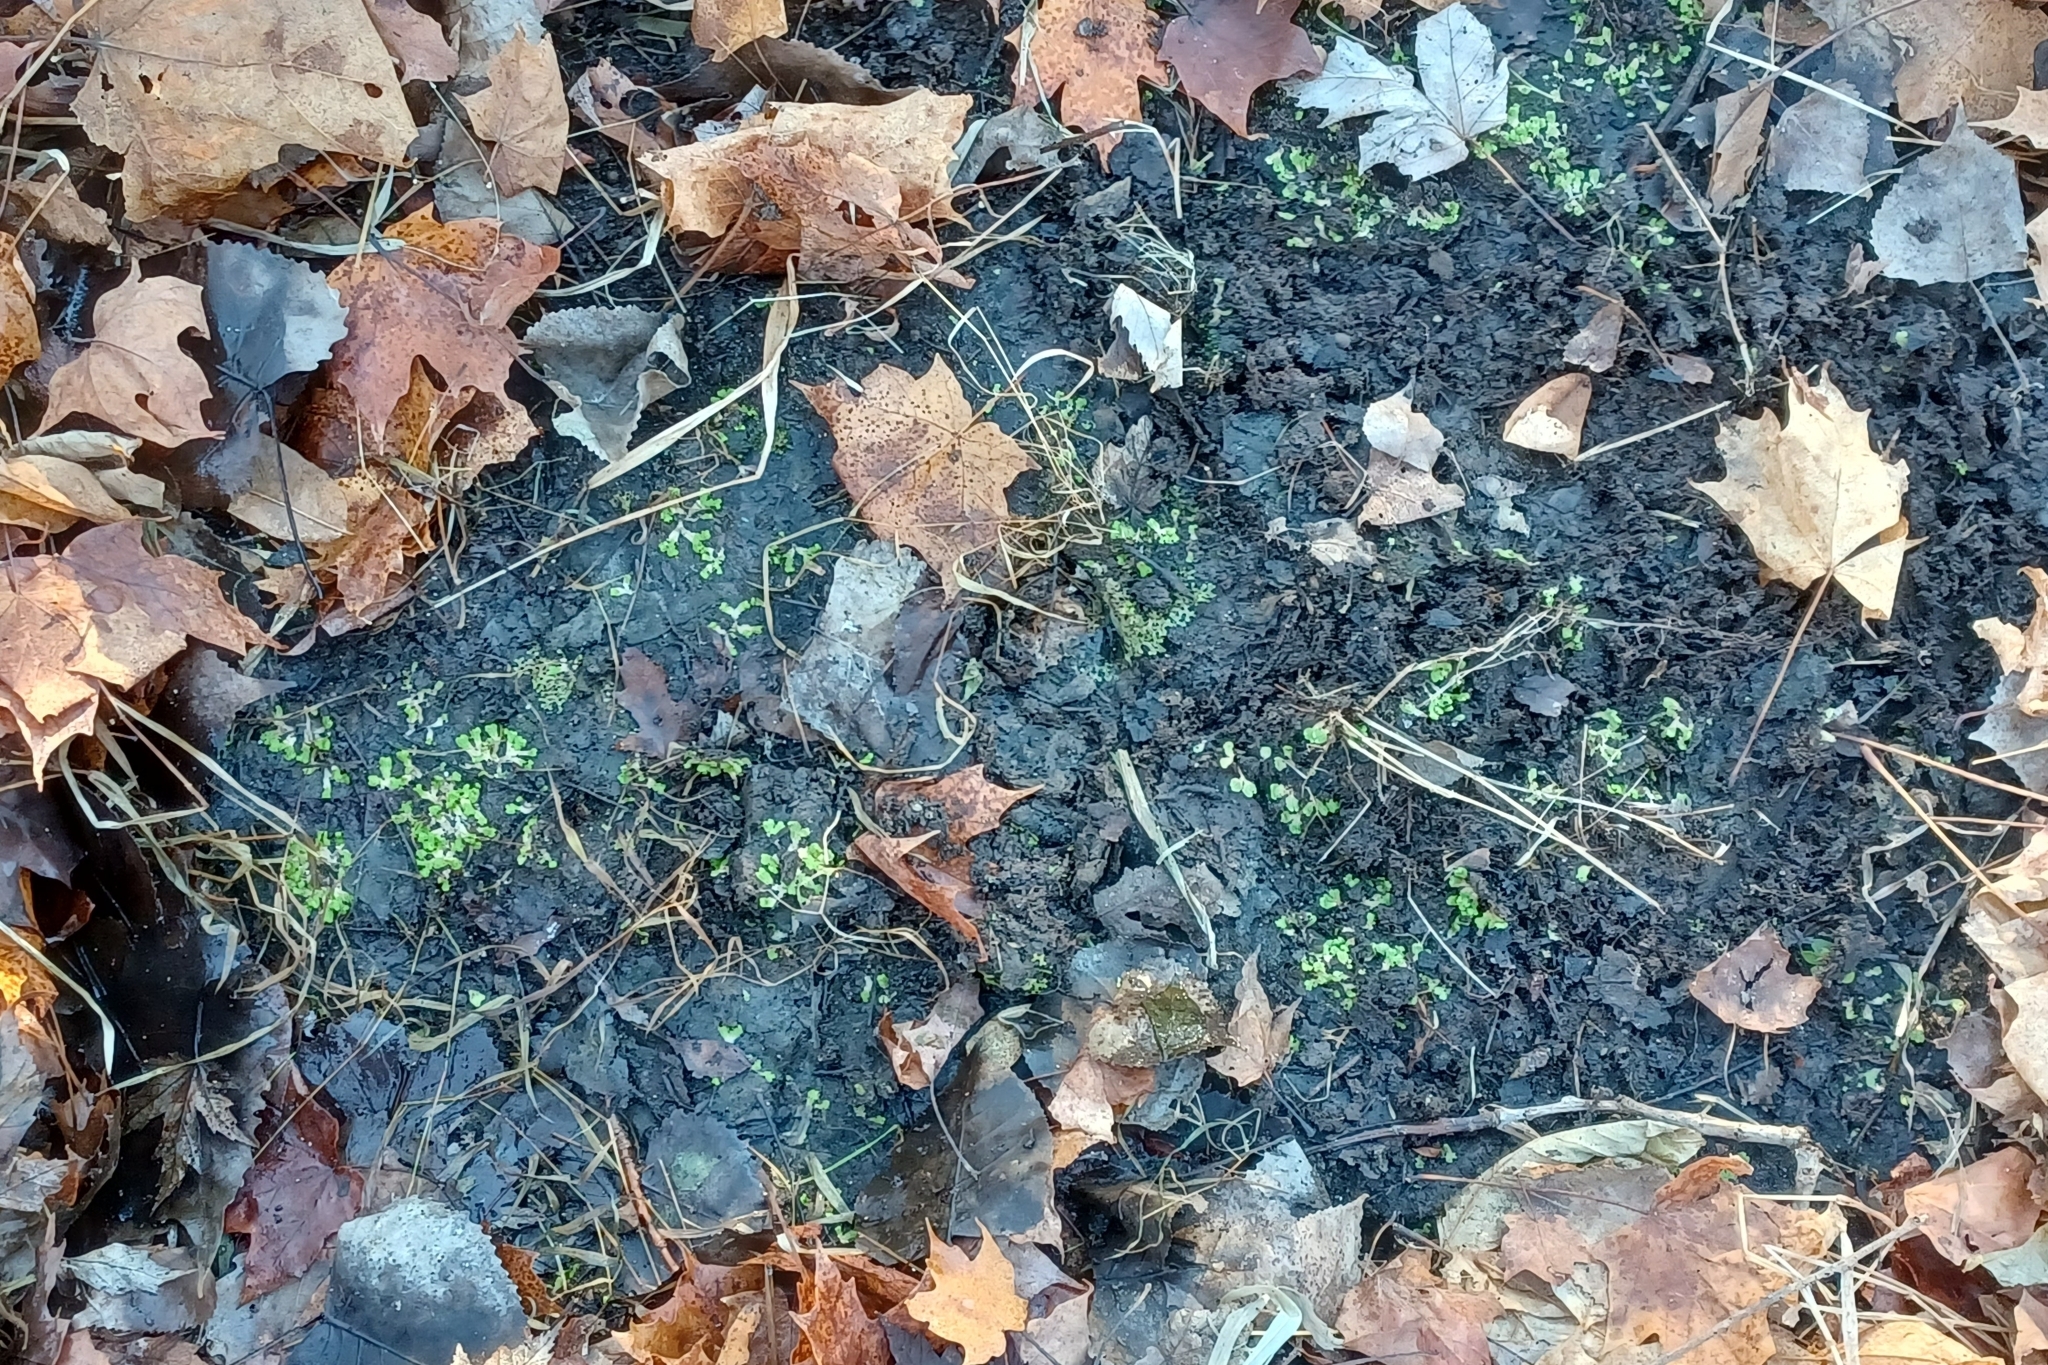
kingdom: Plantae
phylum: Marchantiophyta
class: Marchantiopsida
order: Marchantiales
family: Ricciaceae
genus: Ricciocarpos
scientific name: Ricciocarpos natans
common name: Purple-fringed liverwort
